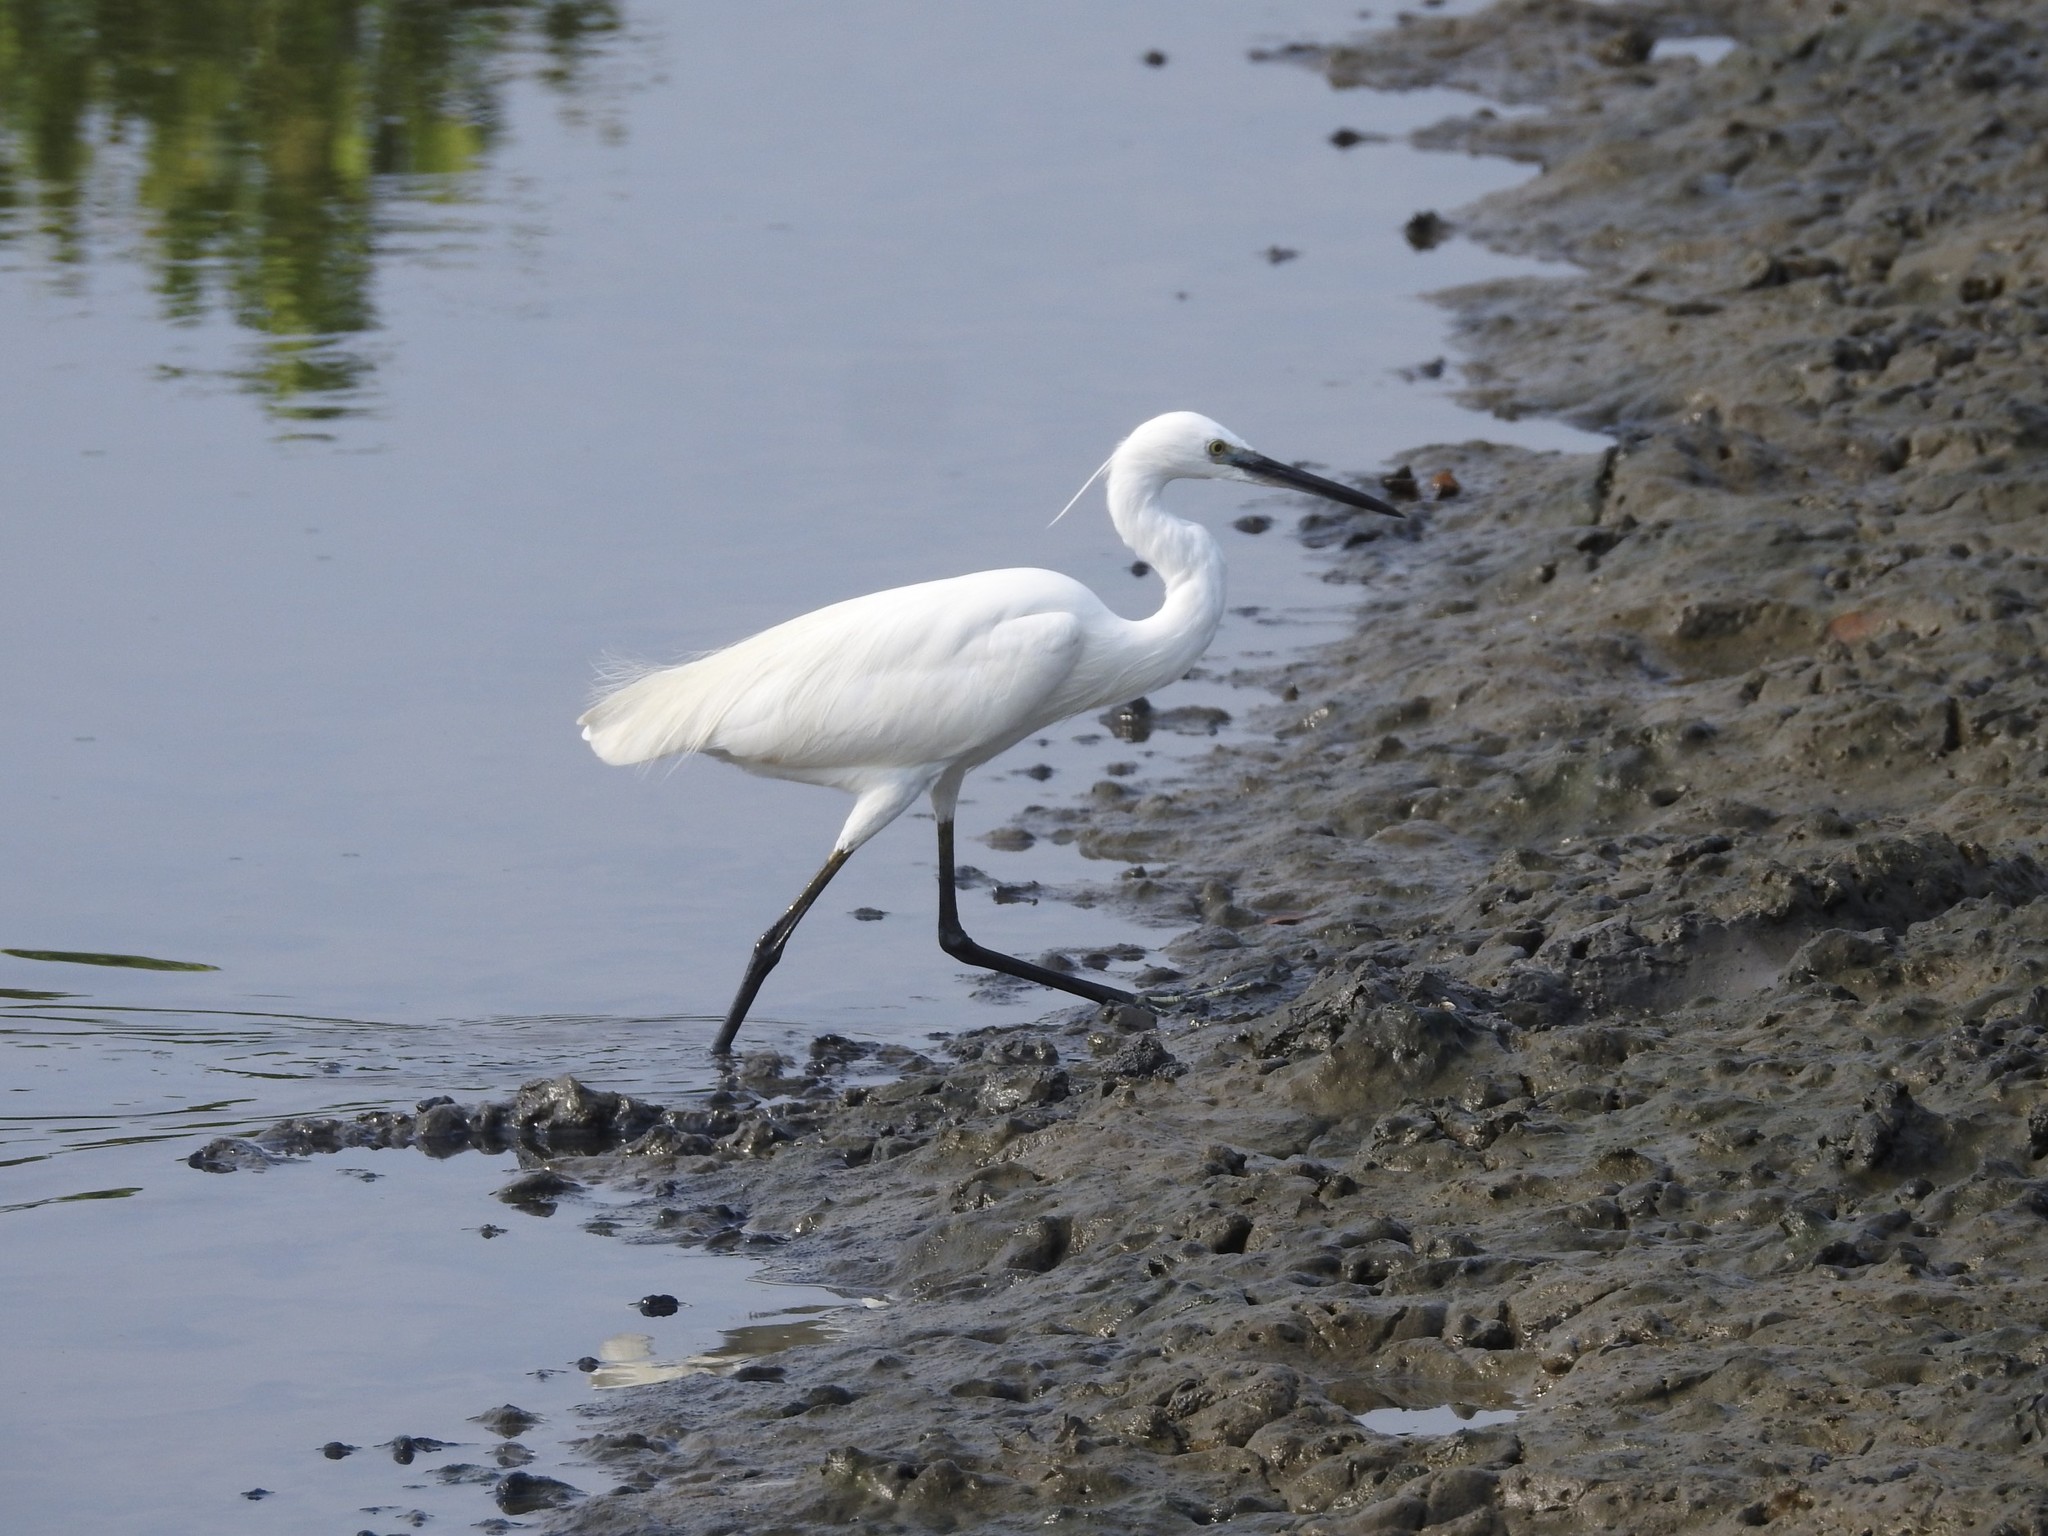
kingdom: Animalia
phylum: Chordata
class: Aves
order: Pelecaniformes
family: Ardeidae
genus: Egretta
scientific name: Egretta garzetta
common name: Little egret
